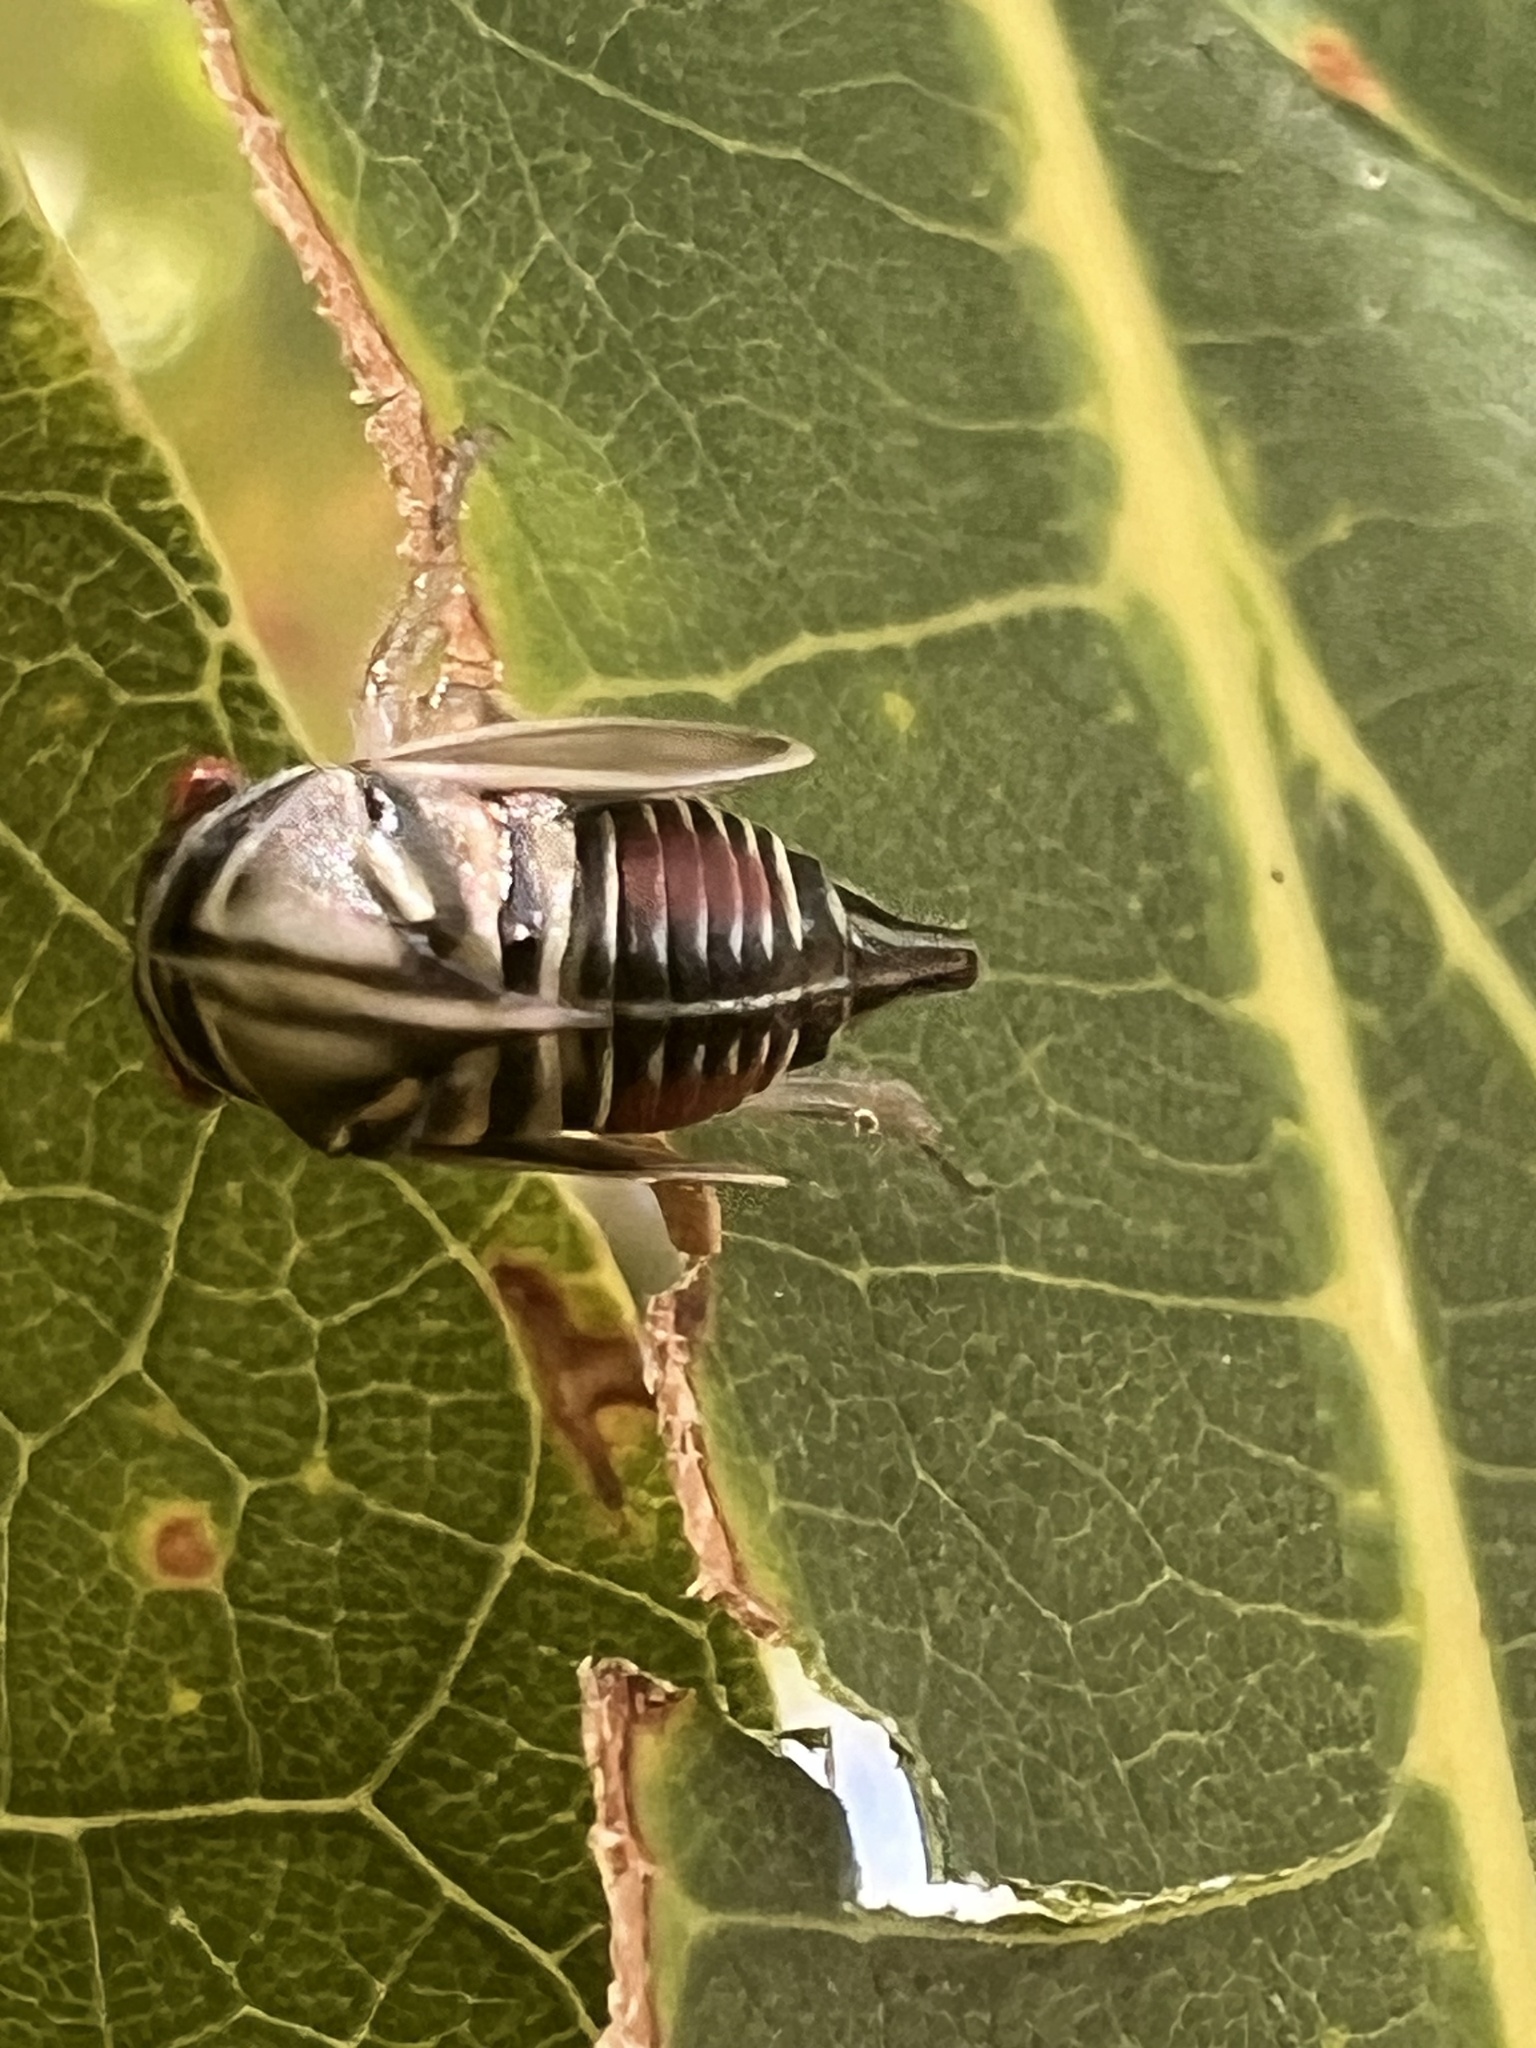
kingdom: Animalia
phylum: Arthropoda
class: Insecta
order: Hemiptera
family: Membracidae
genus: Platycotis
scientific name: Platycotis vittatus
